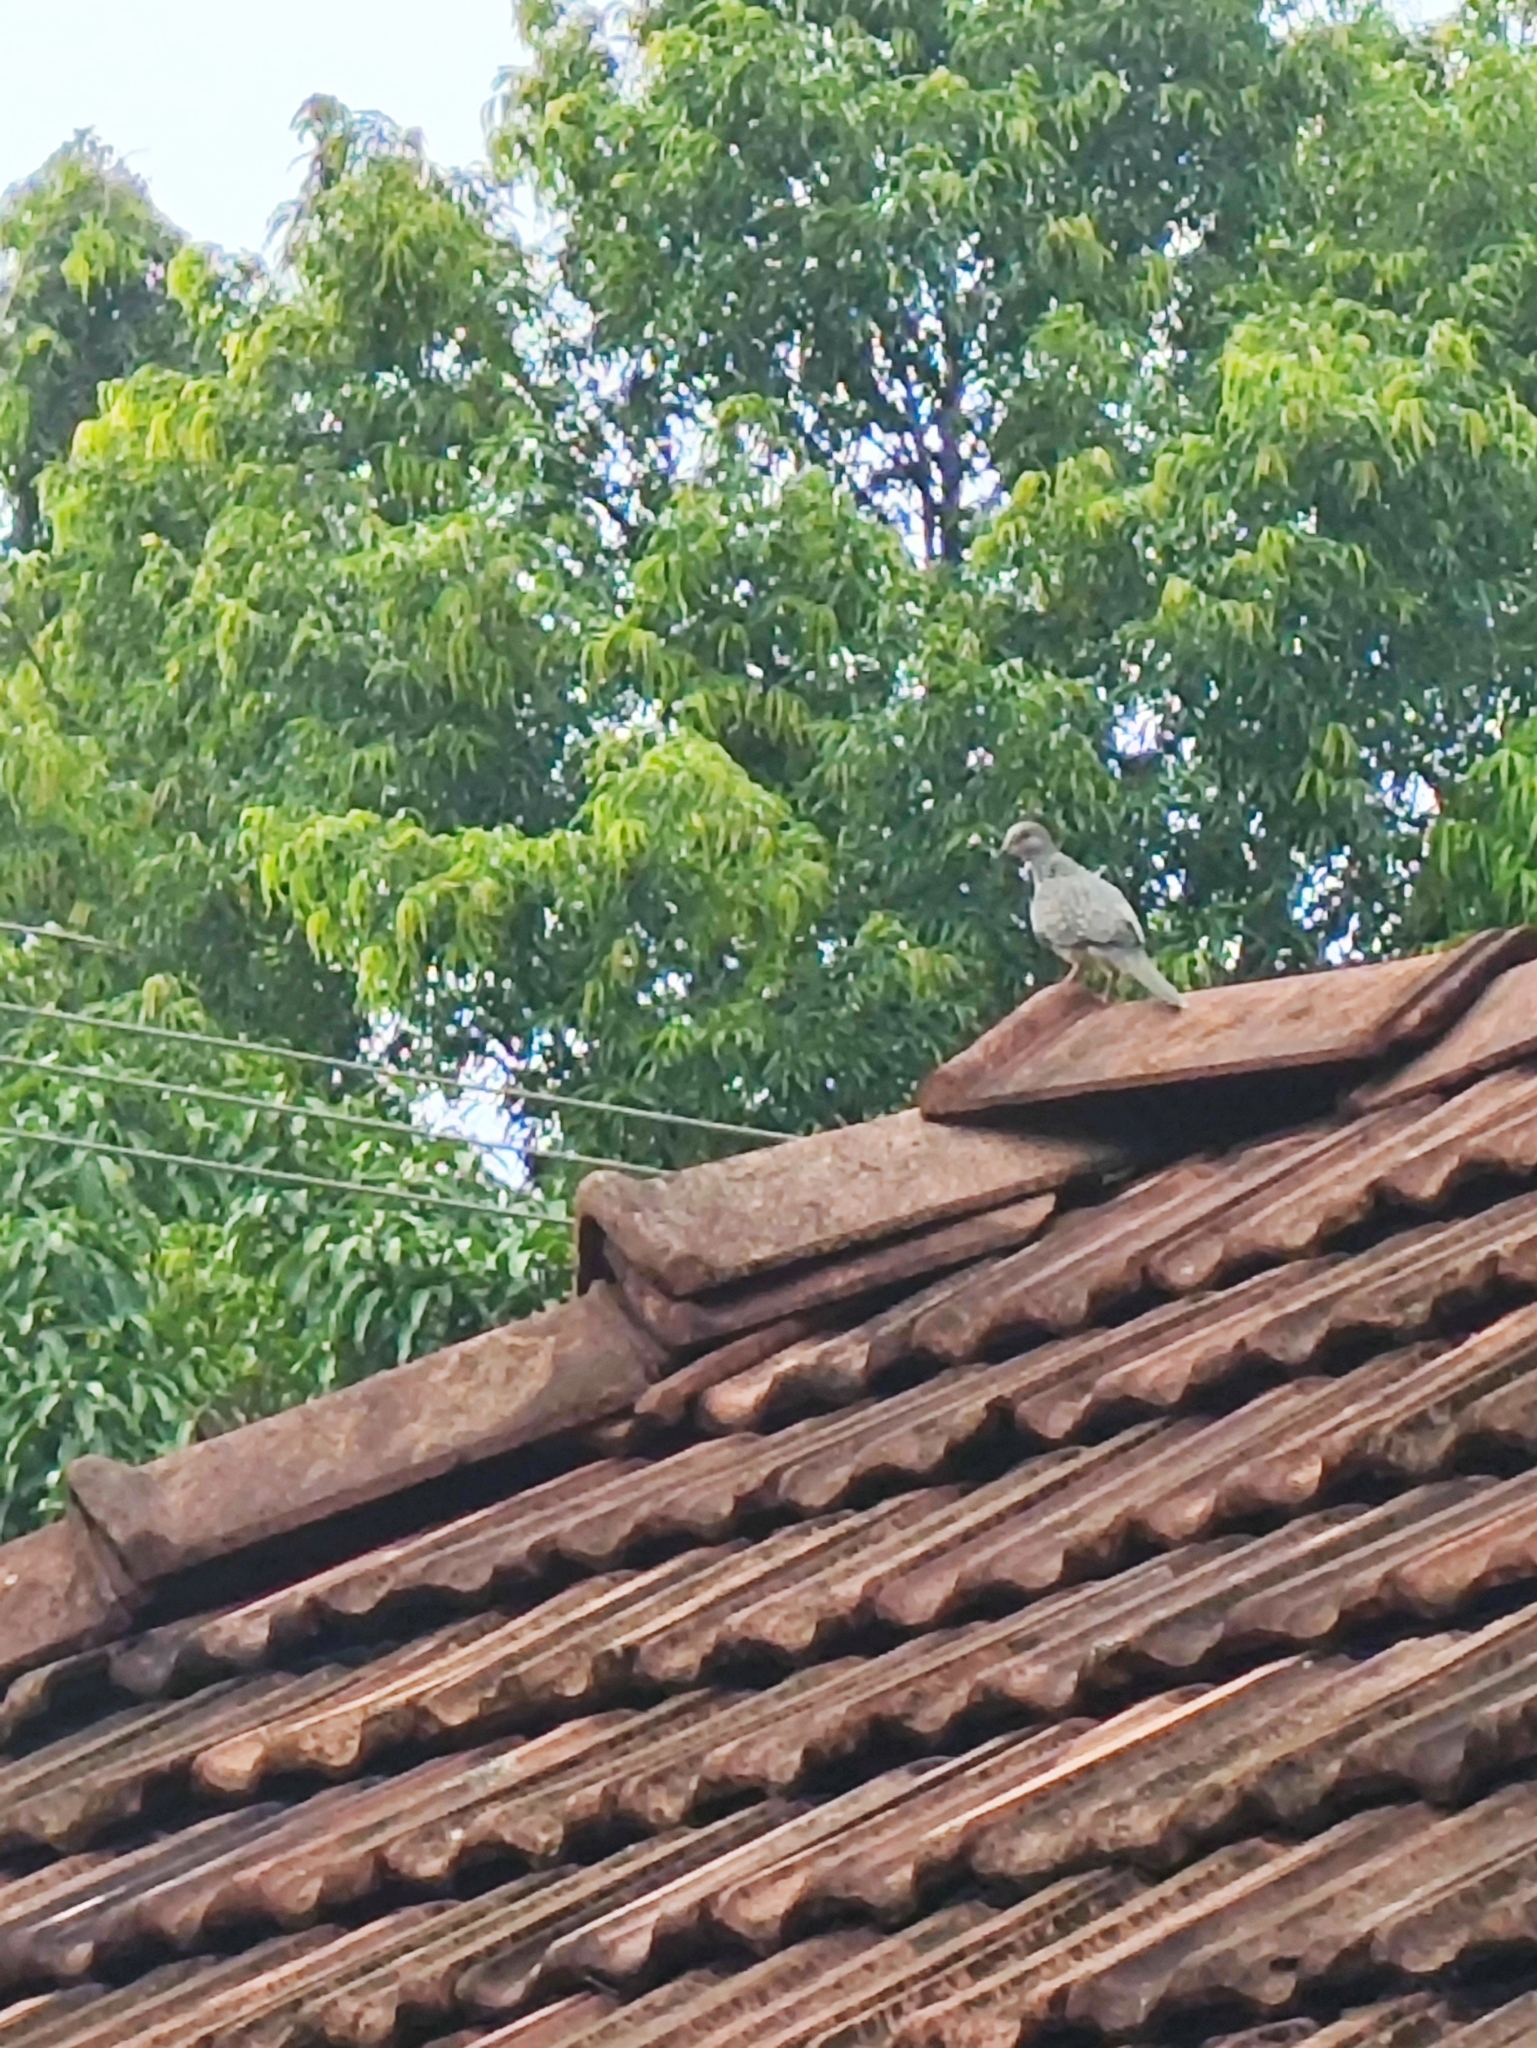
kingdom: Animalia
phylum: Chordata
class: Aves
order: Columbiformes
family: Columbidae
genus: Spilopelia
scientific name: Spilopelia chinensis
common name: Spotted dove
